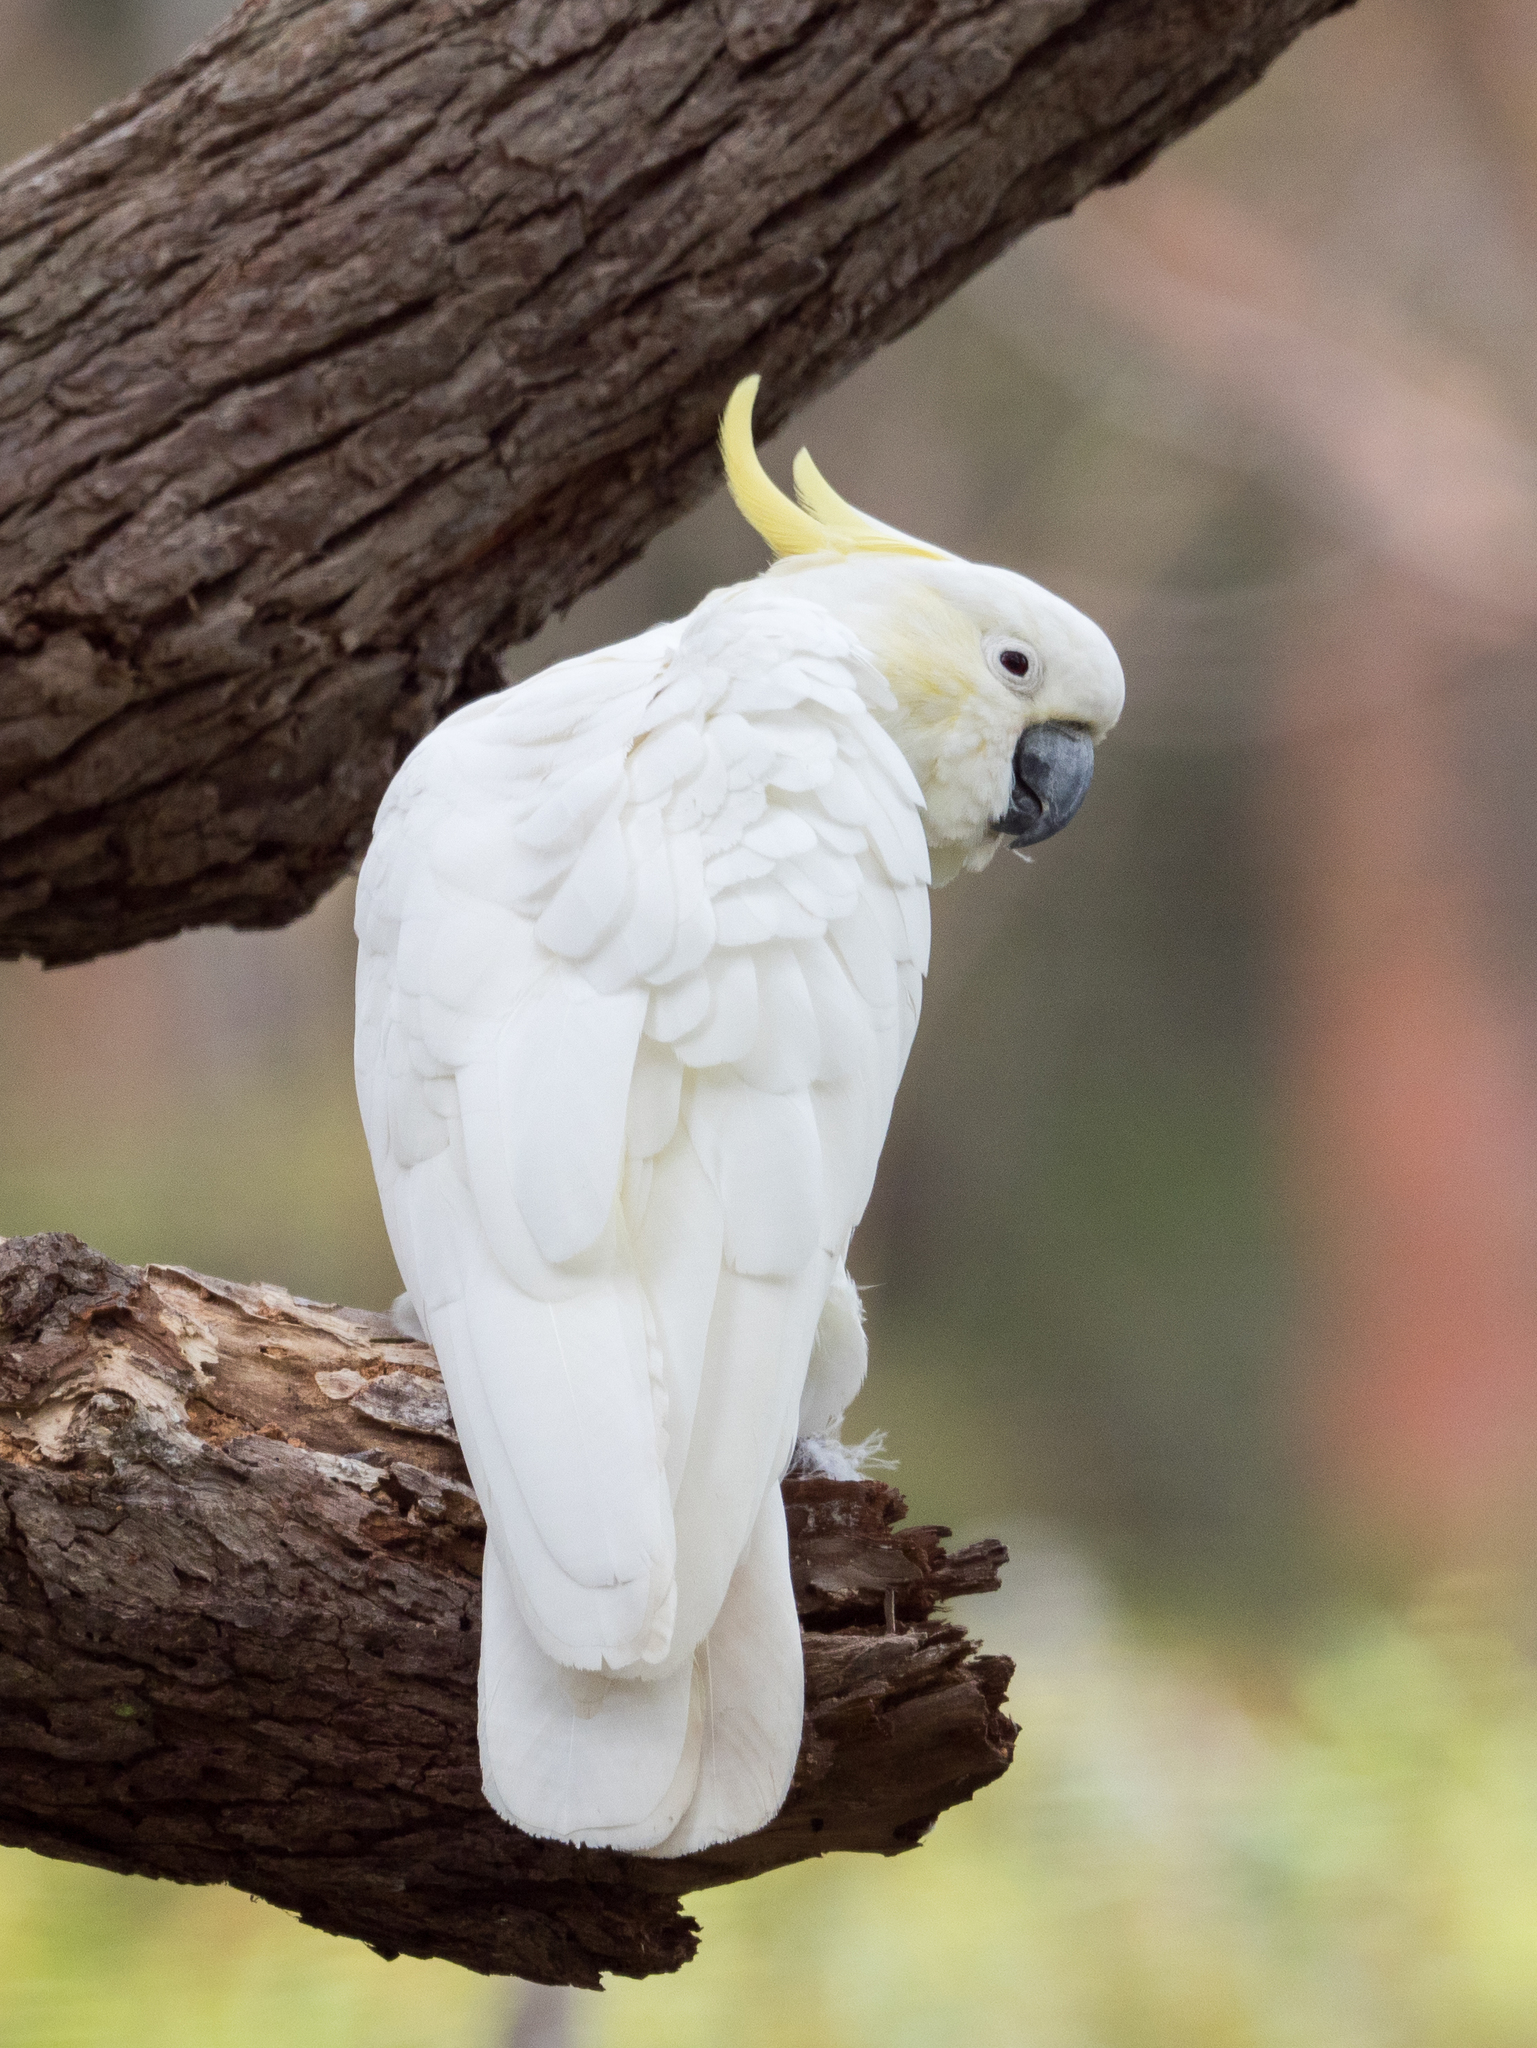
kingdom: Animalia
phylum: Chordata
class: Aves
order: Psittaciformes
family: Psittacidae
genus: Cacatua
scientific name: Cacatua galerita
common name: Sulphur-crested cockatoo
